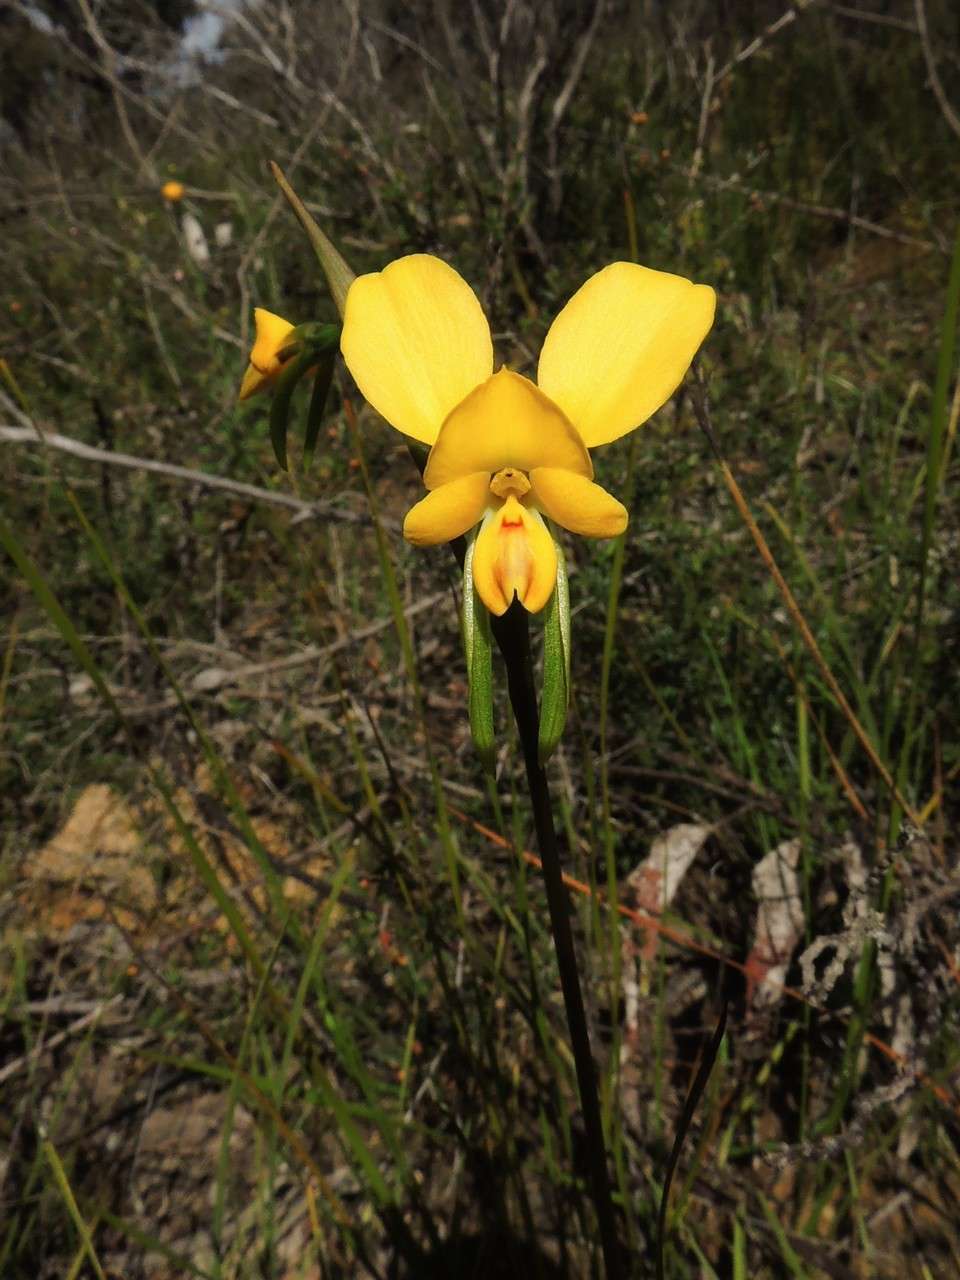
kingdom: Plantae
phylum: Tracheophyta
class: Liliopsida
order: Asparagales
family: Orchidaceae
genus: Diuris
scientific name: Diuris orientis
